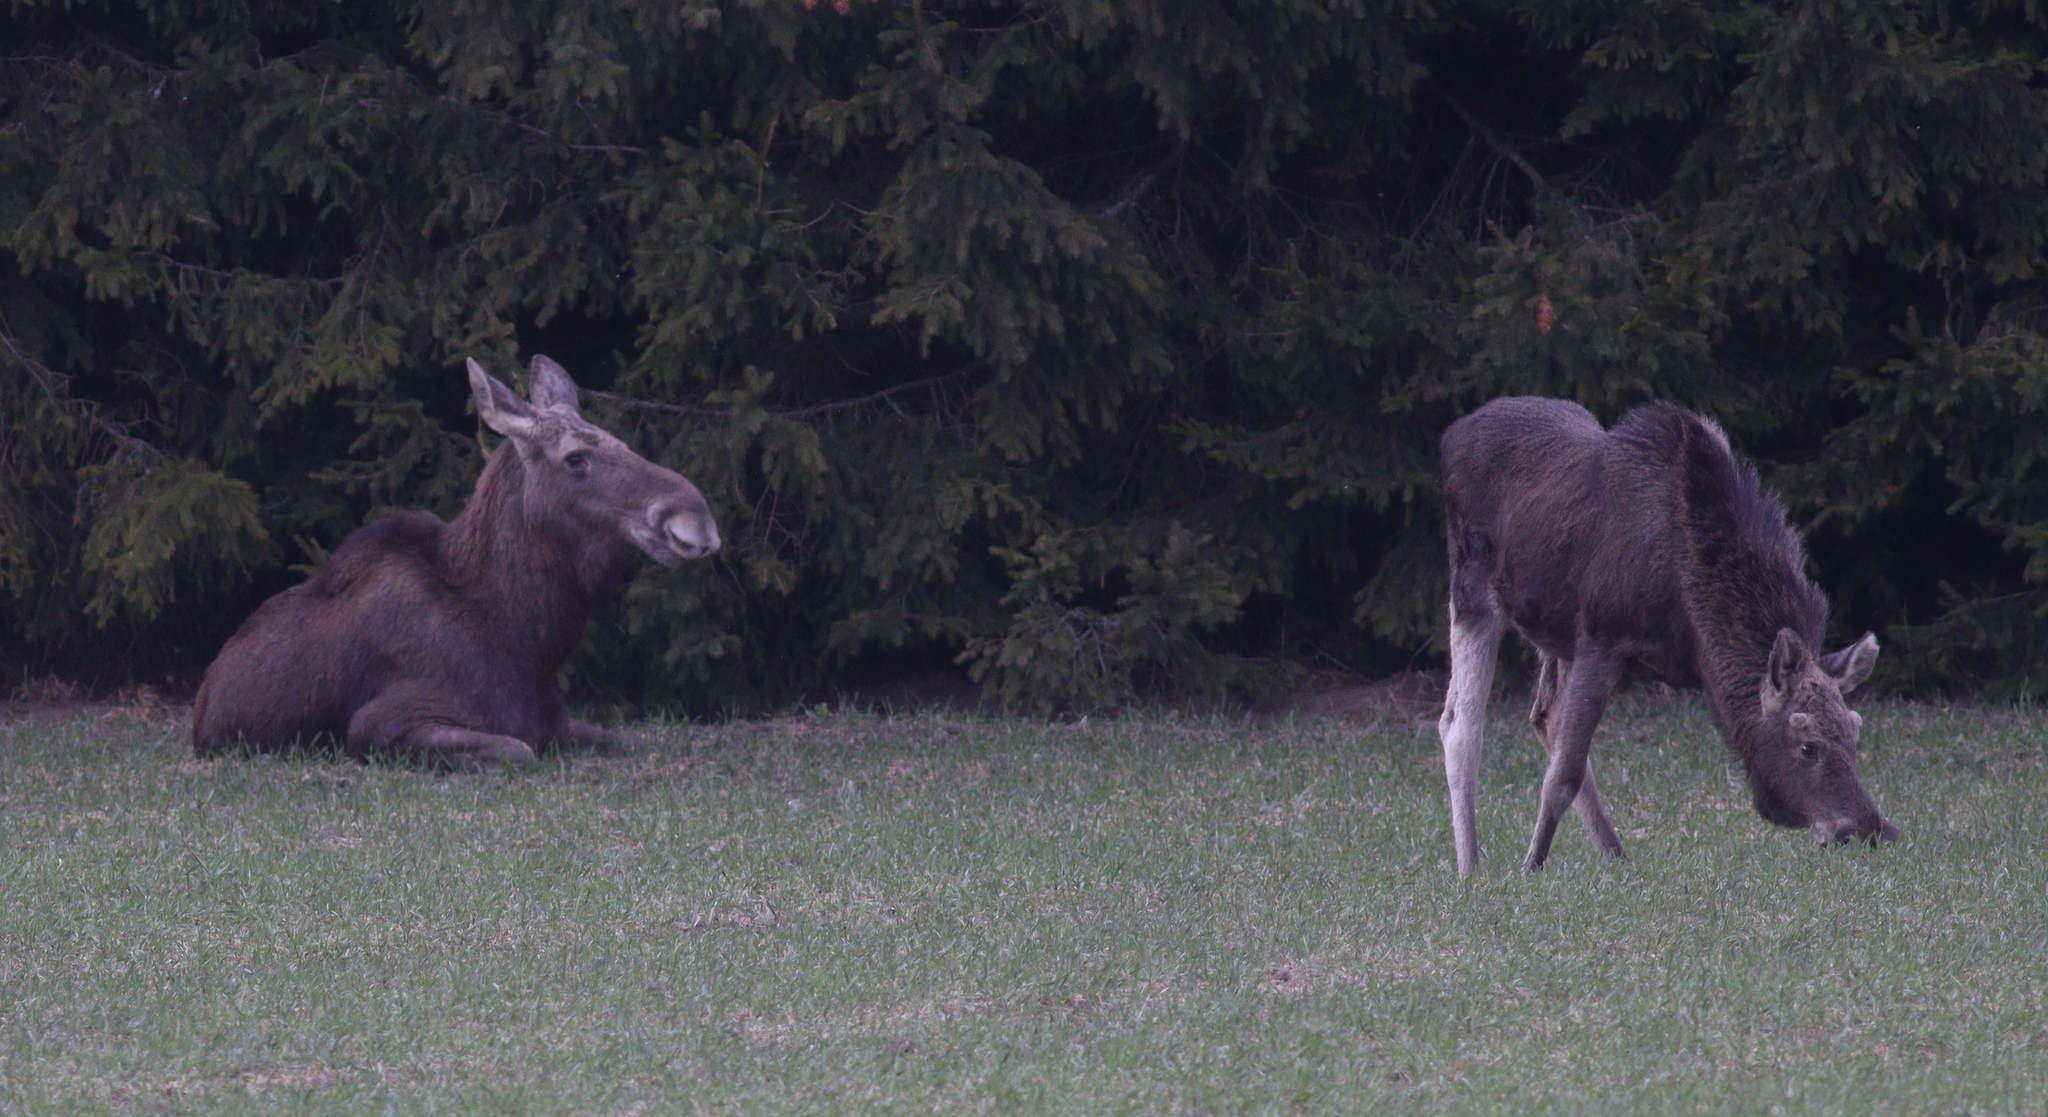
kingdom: Animalia
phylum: Chordata
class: Mammalia
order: Artiodactyla
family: Cervidae
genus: Alces
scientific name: Alces alces
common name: Moose
